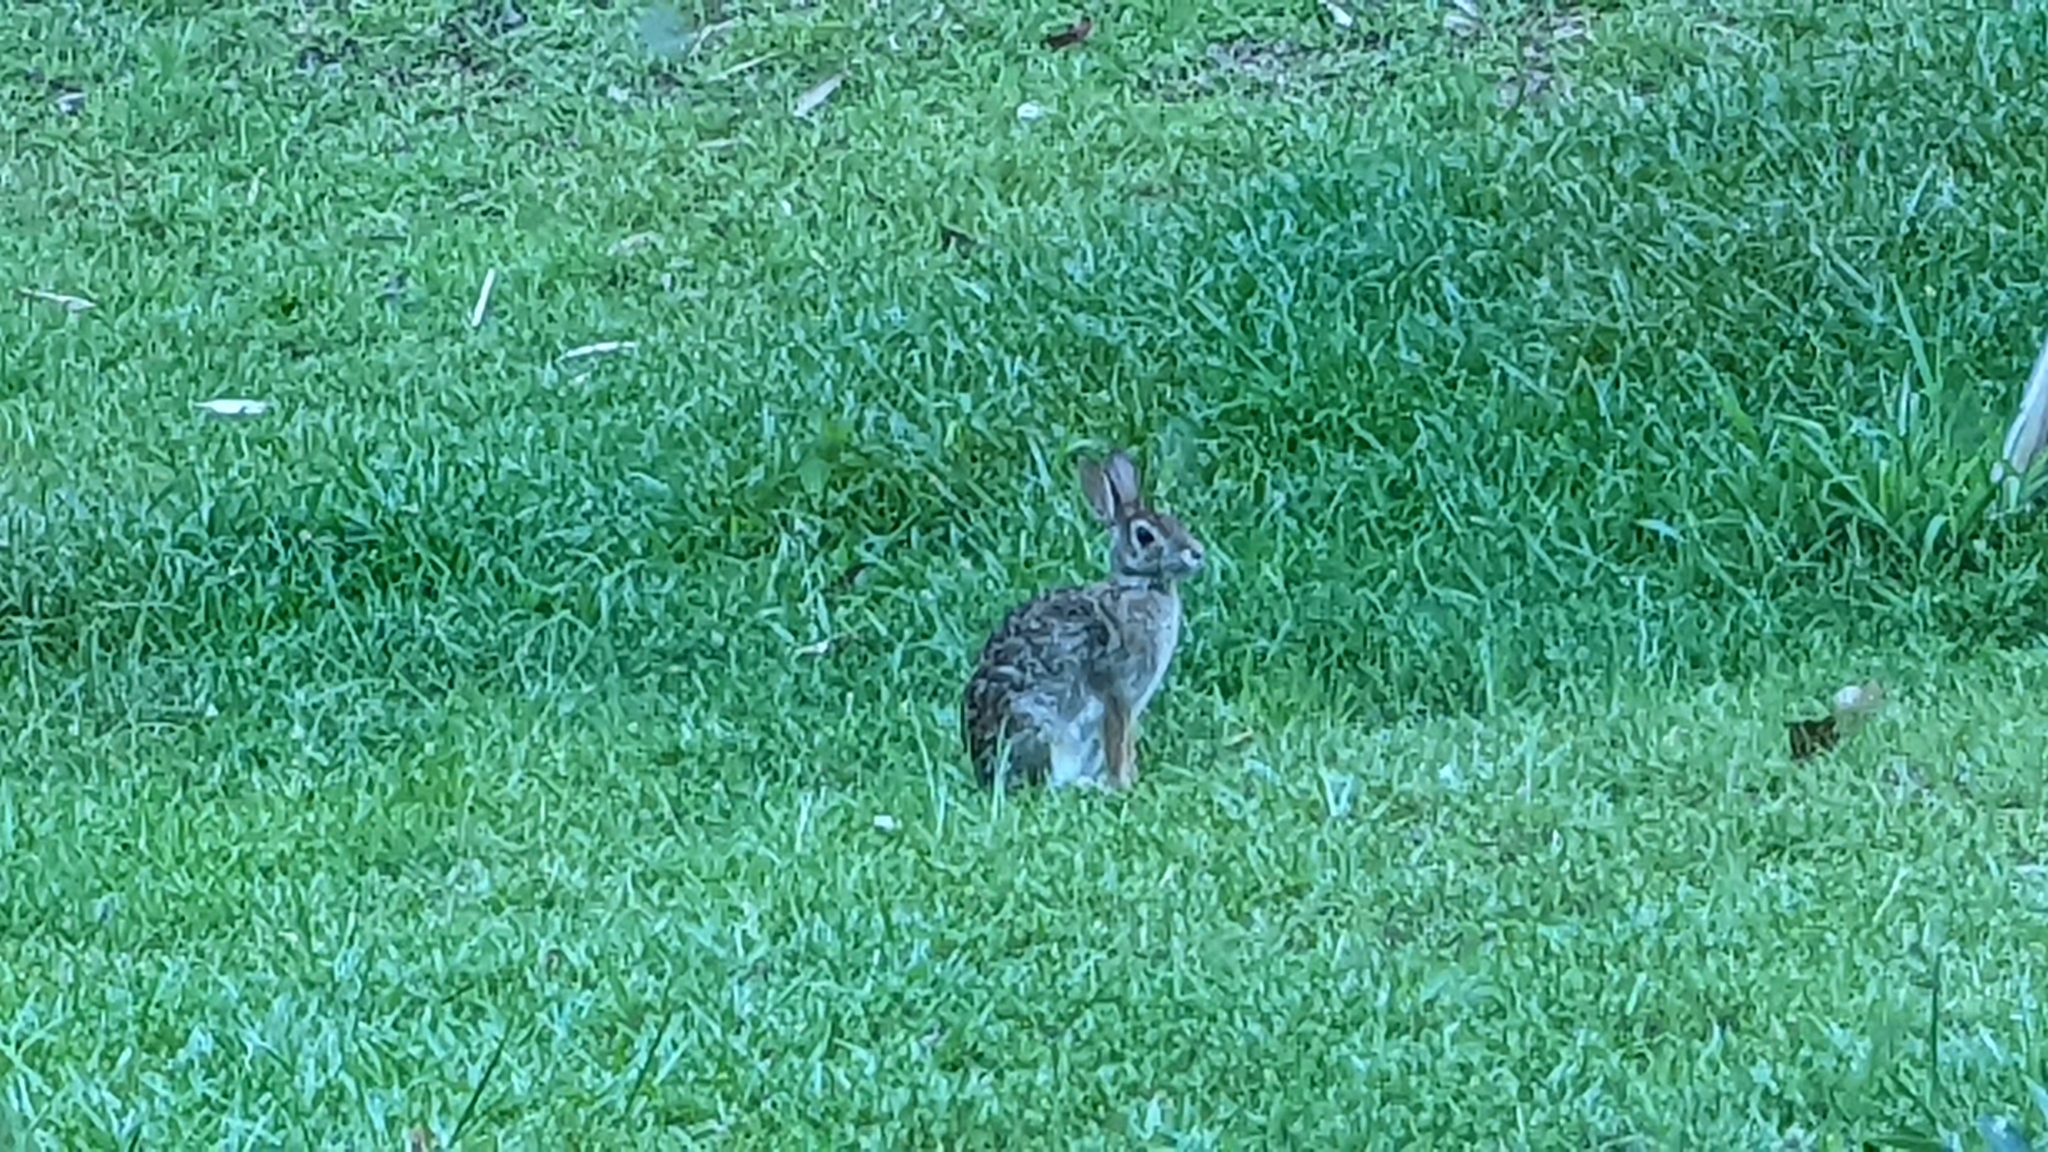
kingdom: Animalia
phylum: Chordata
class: Mammalia
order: Lagomorpha
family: Leporidae
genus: Sylvilagus
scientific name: Sylvilagus floridanus
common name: Eastern cottontail
